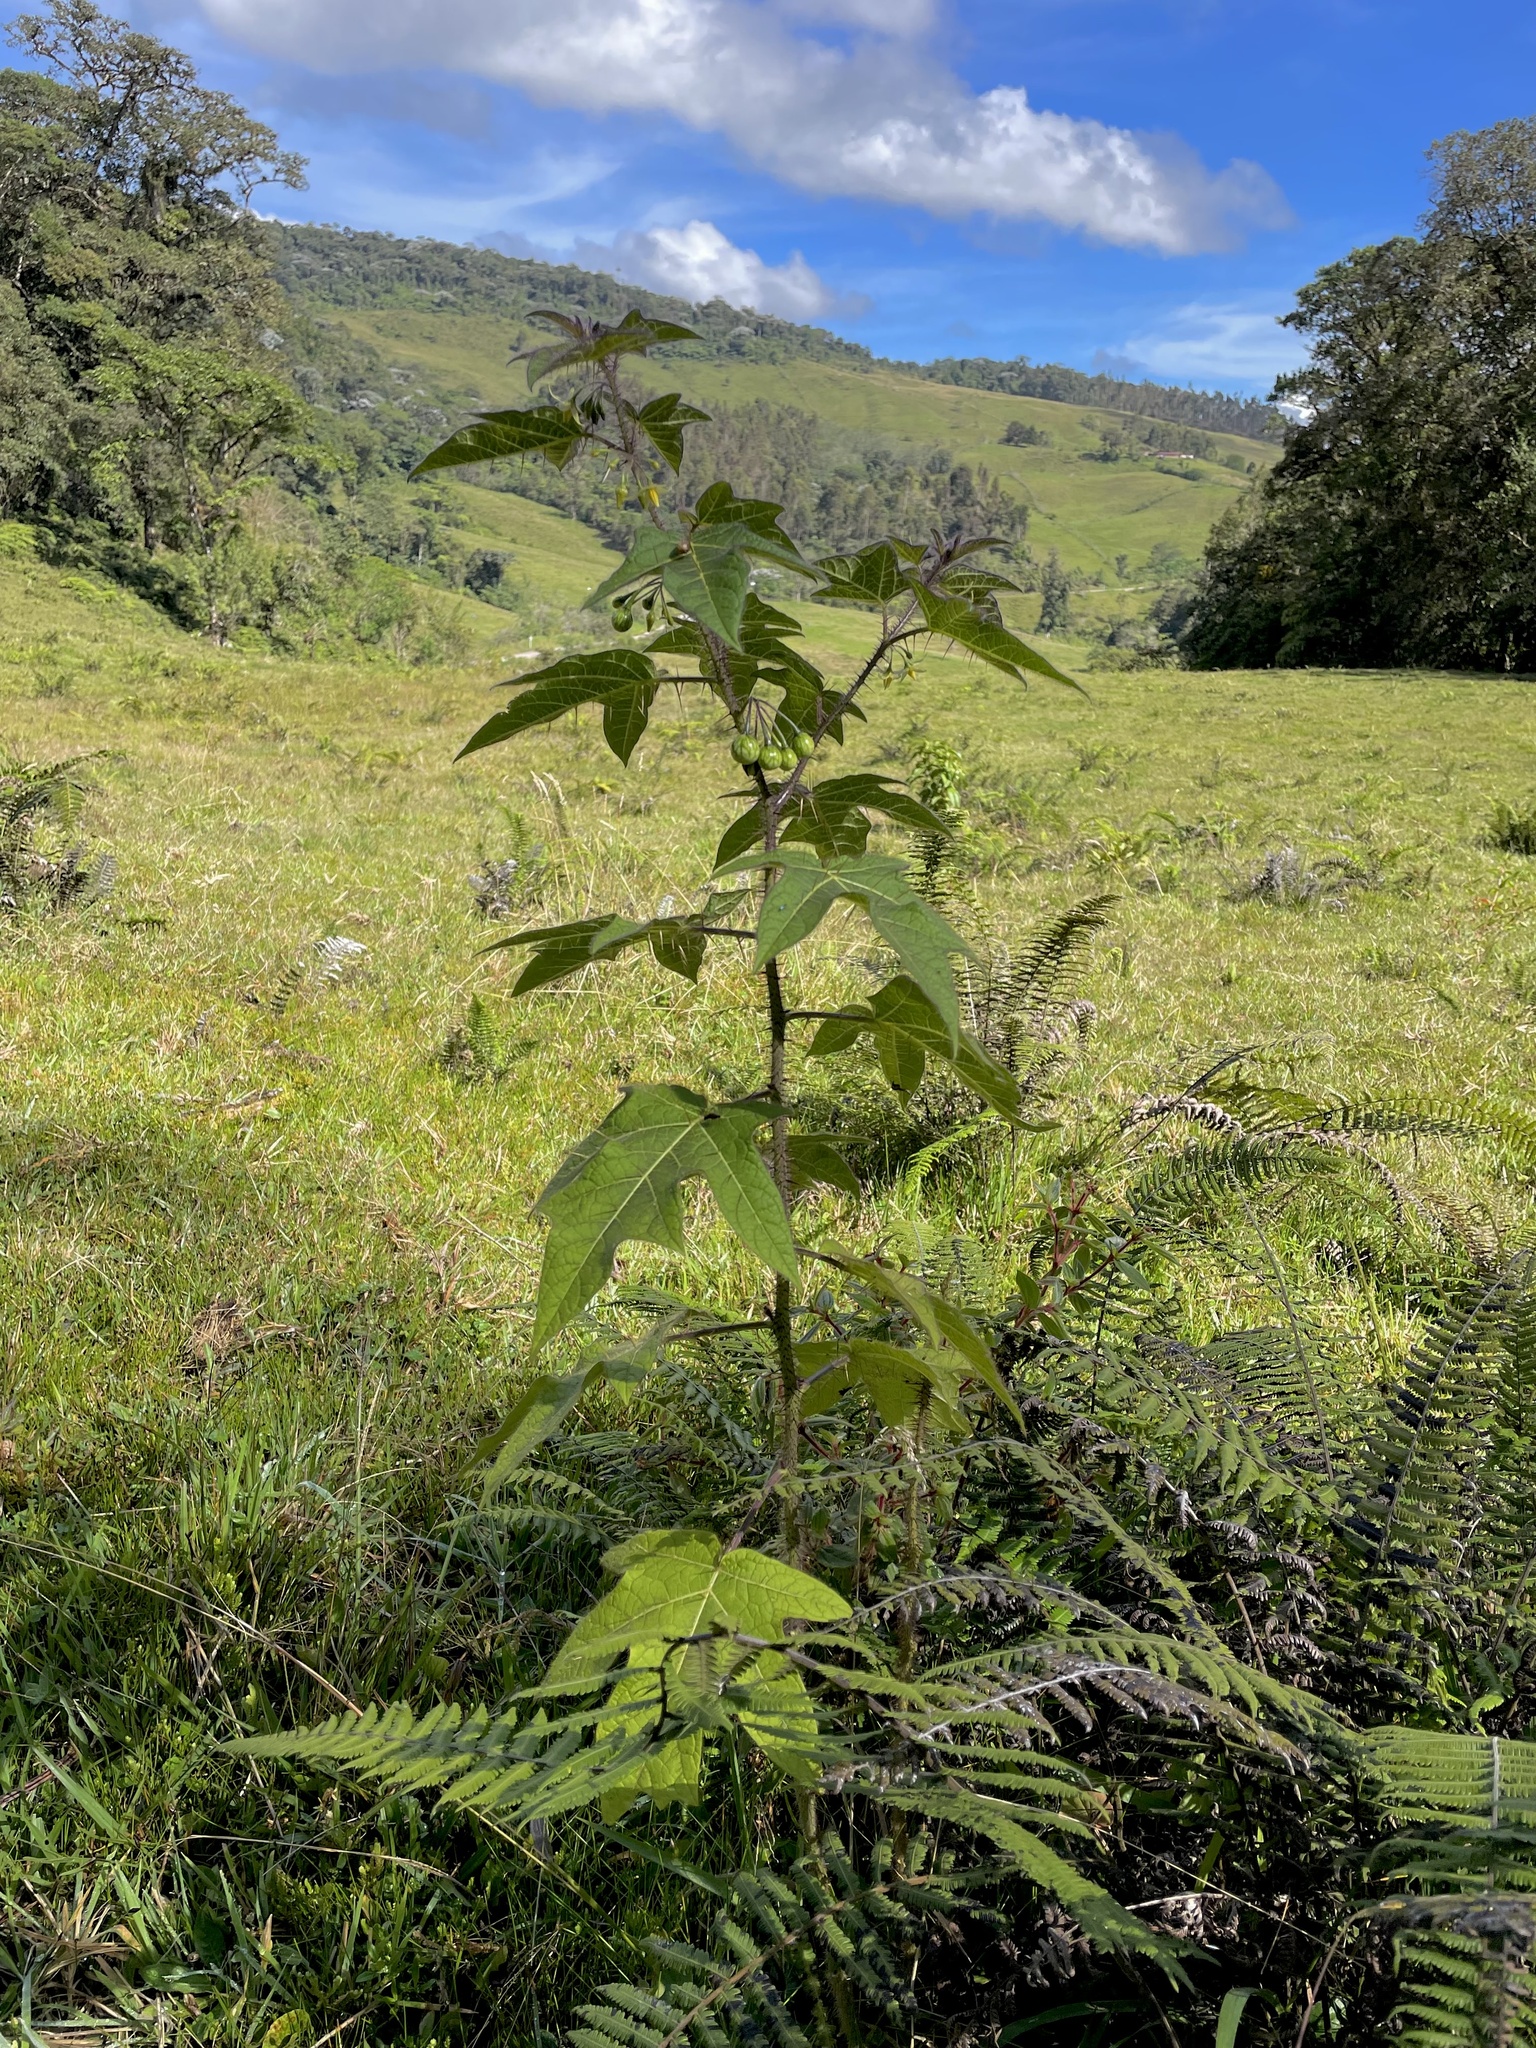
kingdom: Plantae
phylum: Tracheophyta
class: Magnoliopsida
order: Solanales
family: Solanaceae
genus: Solanum
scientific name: Solanum acerifolium
